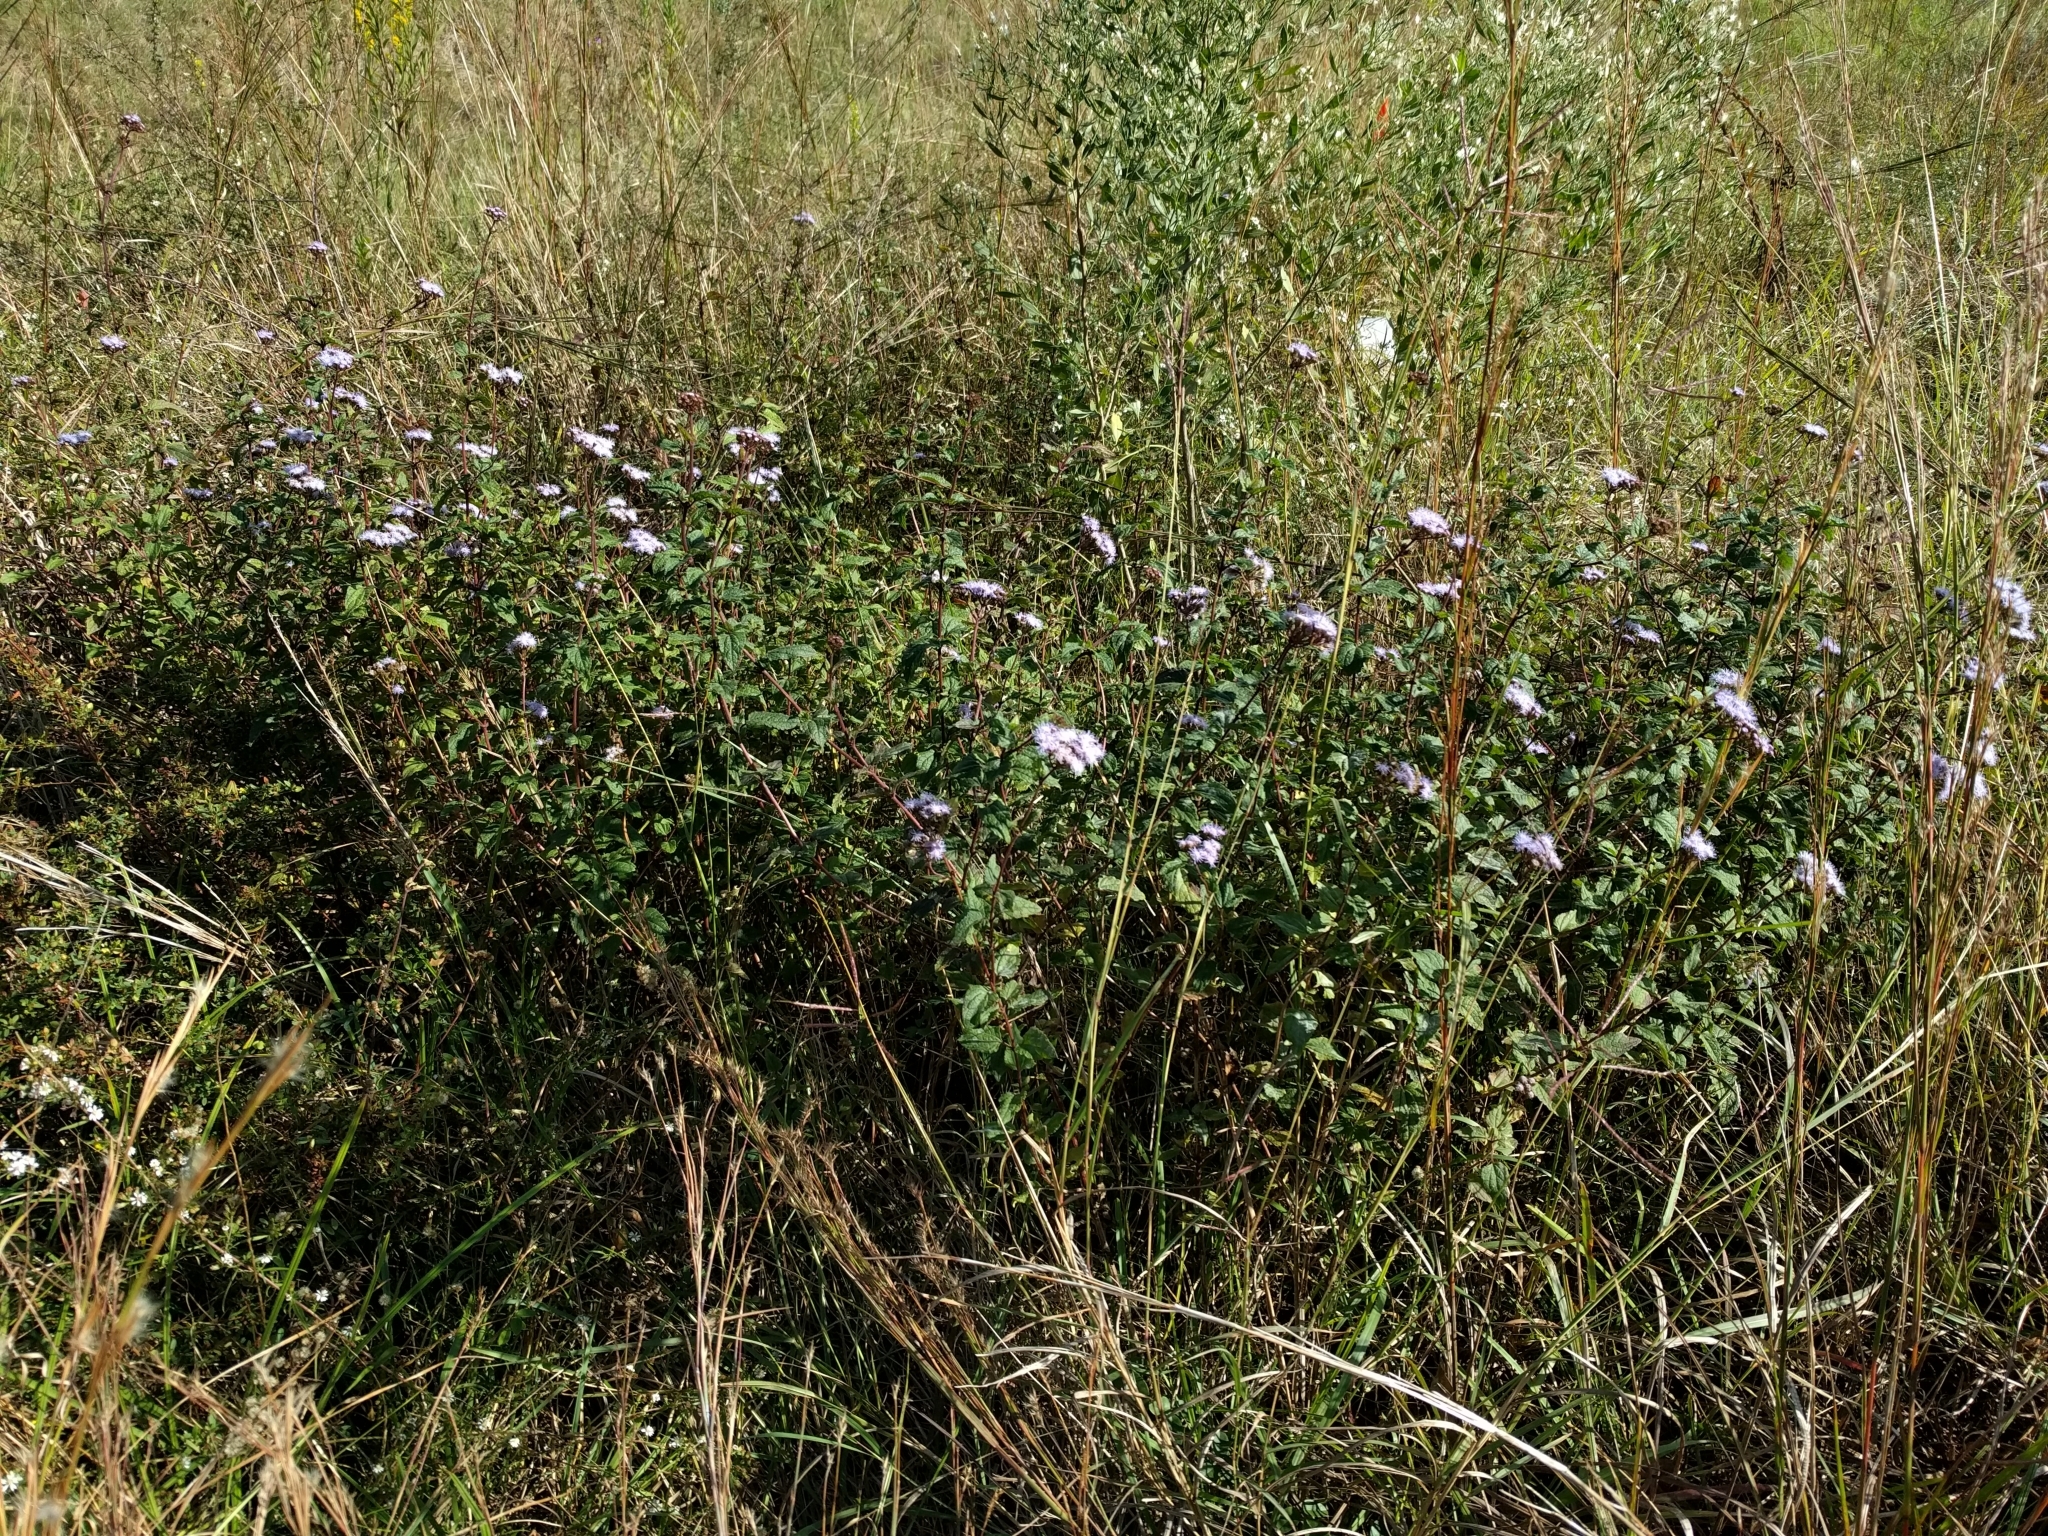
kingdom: Plantae
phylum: Tracheophyta
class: Magnoliopsida
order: Asterales
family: Asteraceae
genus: Conoclinium
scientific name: Conoclinium coelestinum
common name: Blue mistflower
